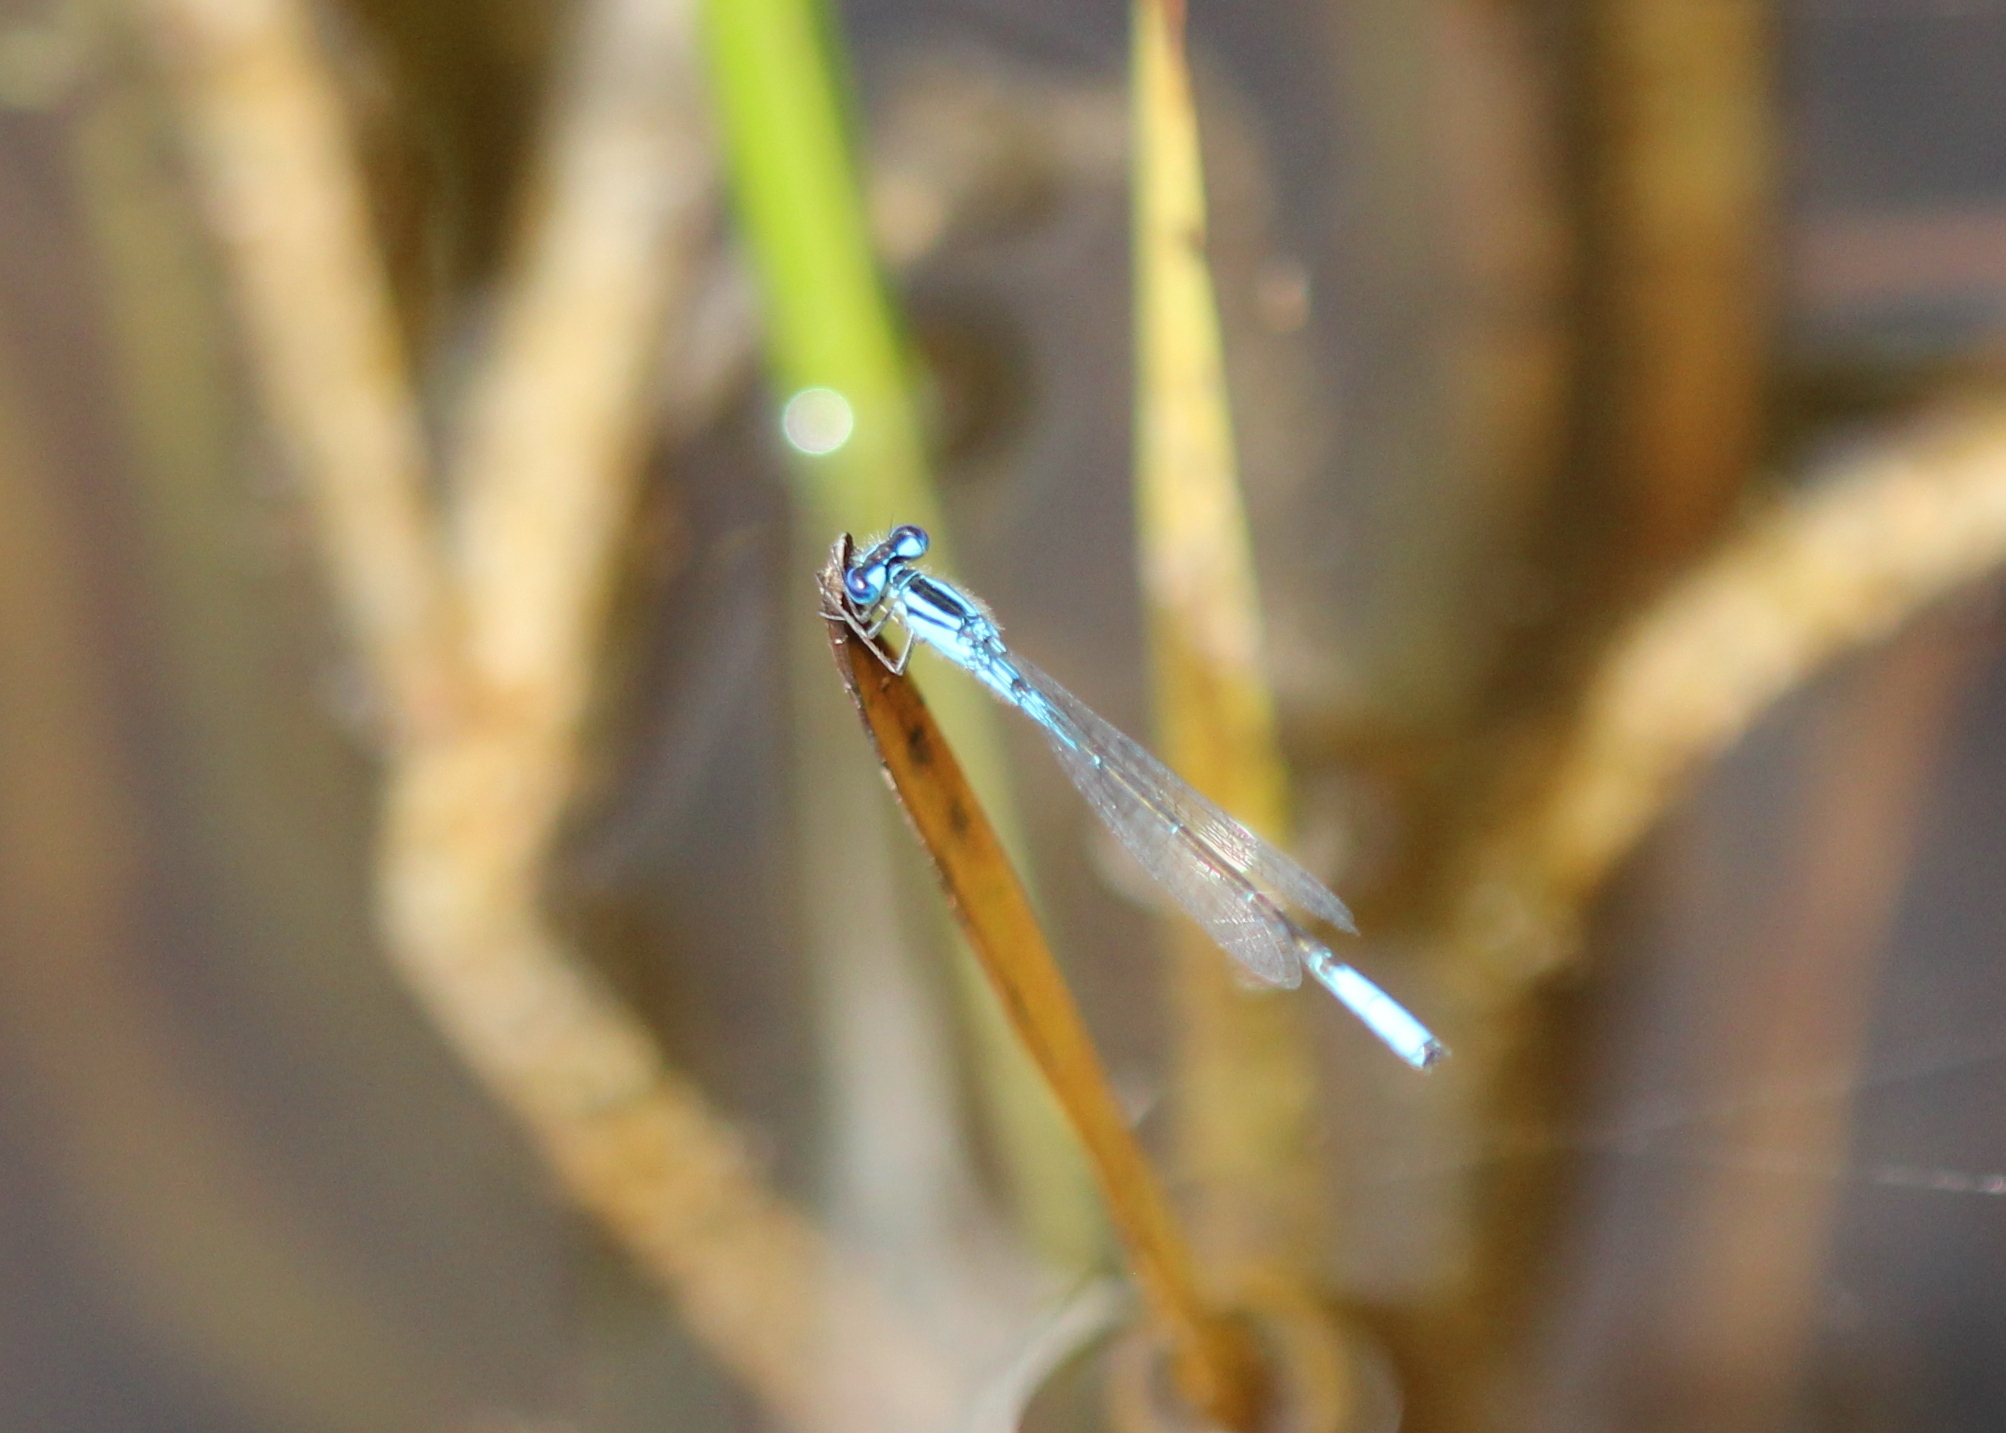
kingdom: Animalia
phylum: Arthropoda
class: Insecta
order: Odonata
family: Coenagrionidae
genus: Enallagma
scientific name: Enallagma aspersum
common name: Azure bluet
